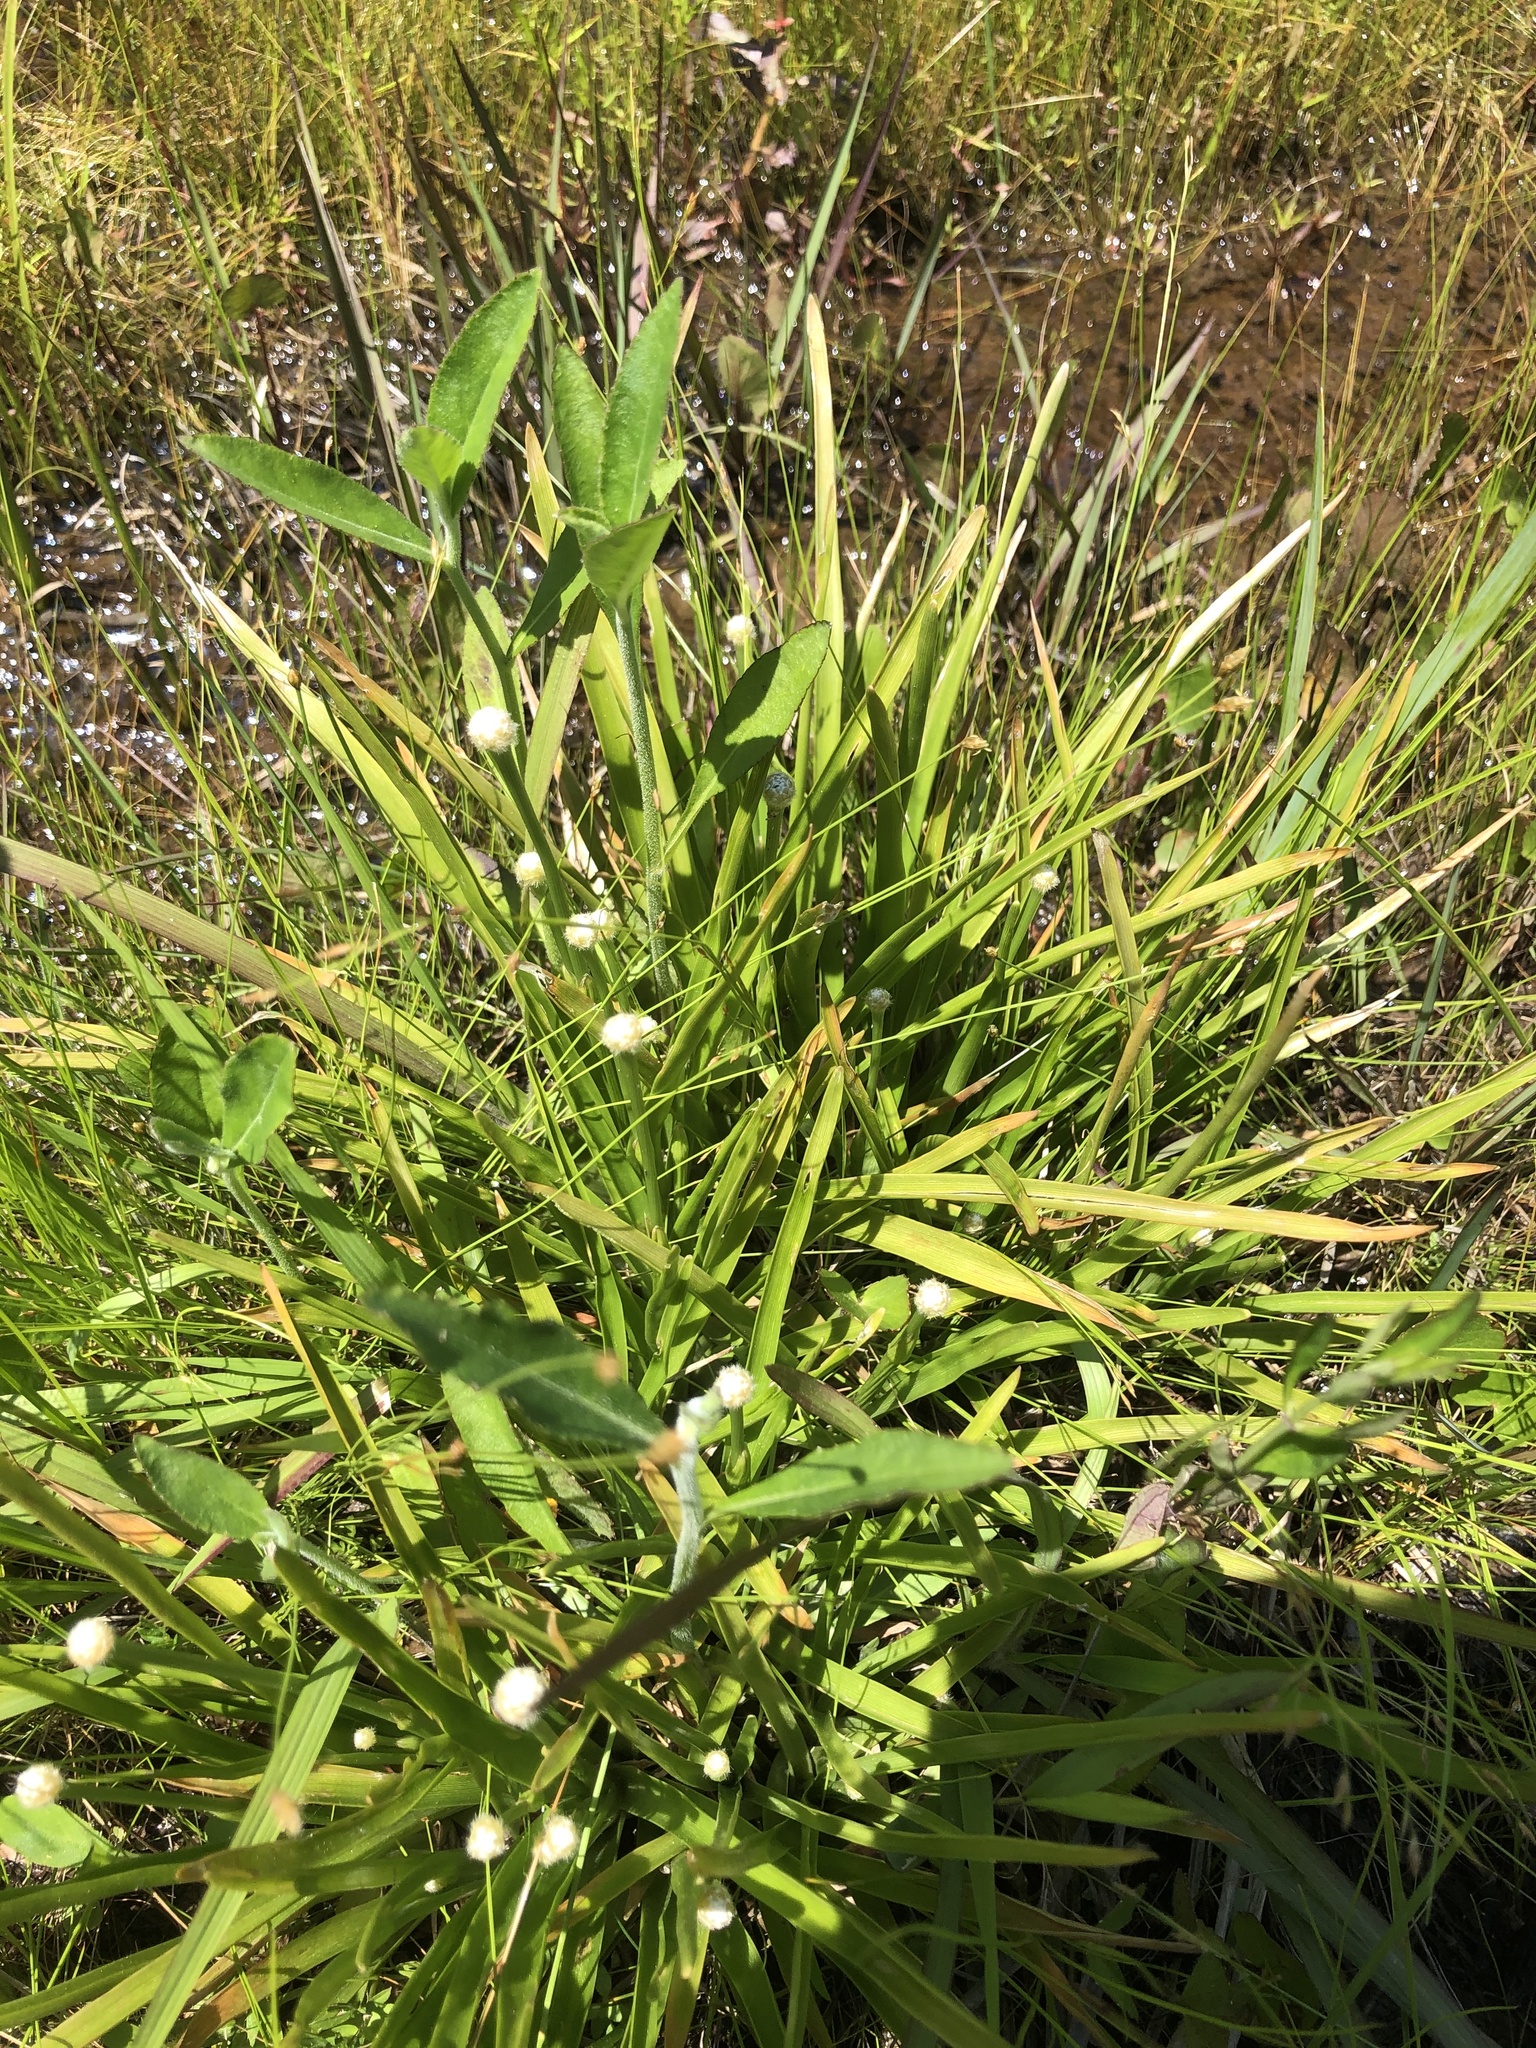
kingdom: Plantae
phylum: Tracheophyta
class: Liliopsida
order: Poales
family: Eriocaulaceae
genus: Eriocaulon
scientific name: Eriocaulon decangulare
